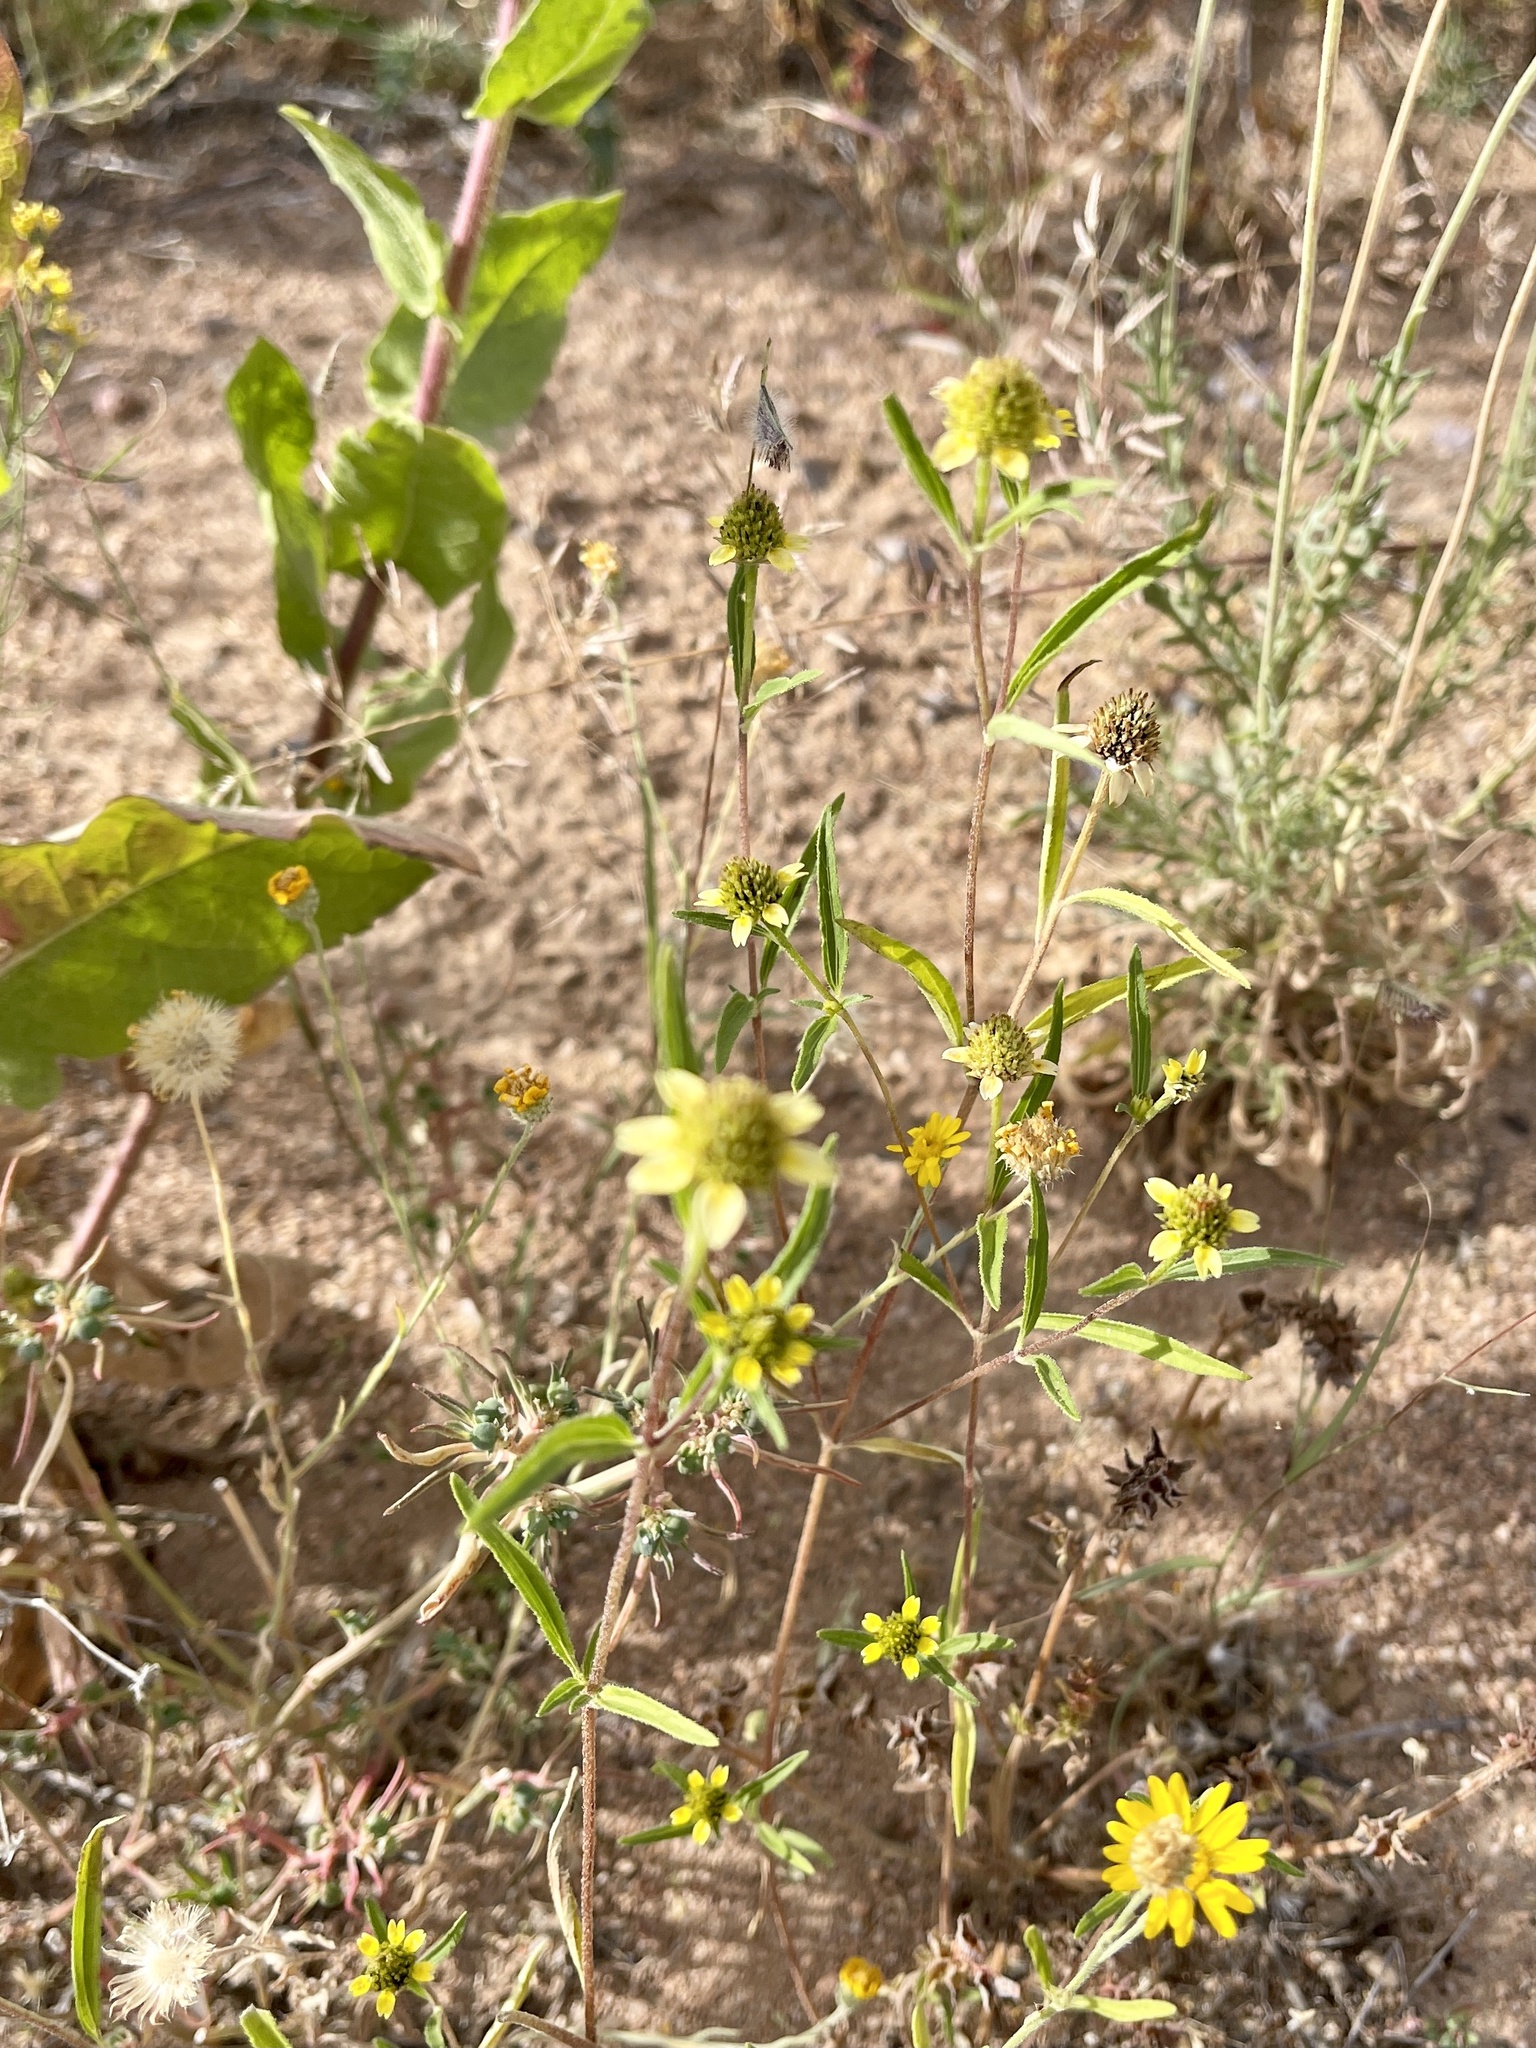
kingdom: Plantae
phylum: Tracheophyta
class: Magnoliopsida
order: Asterales
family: Asteraceae
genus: Sanvitalia
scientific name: Sanvitalia abertii
